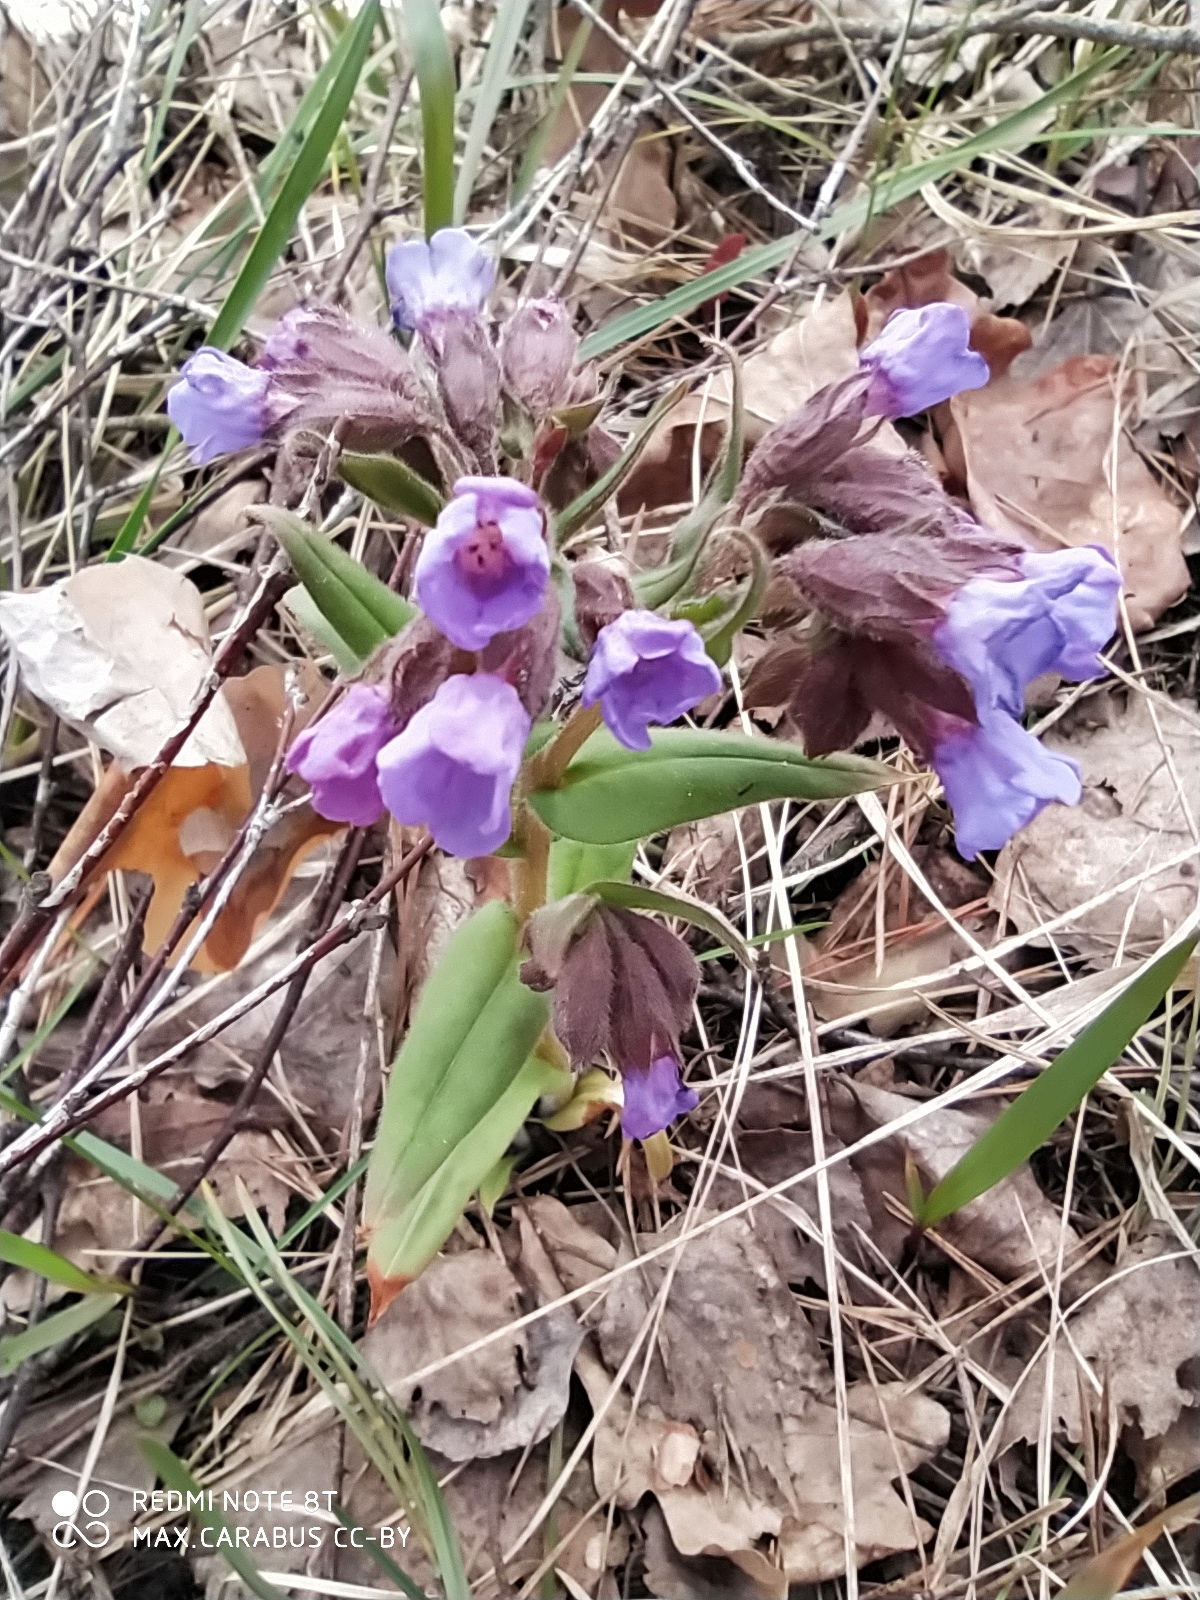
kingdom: Plantae
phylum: Tracheophyta
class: Magnoliopsida
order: Boraginales
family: Boraginaceae
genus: Pulmonaria
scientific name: Pulmonaria angustifolia
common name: Blue cowslip
